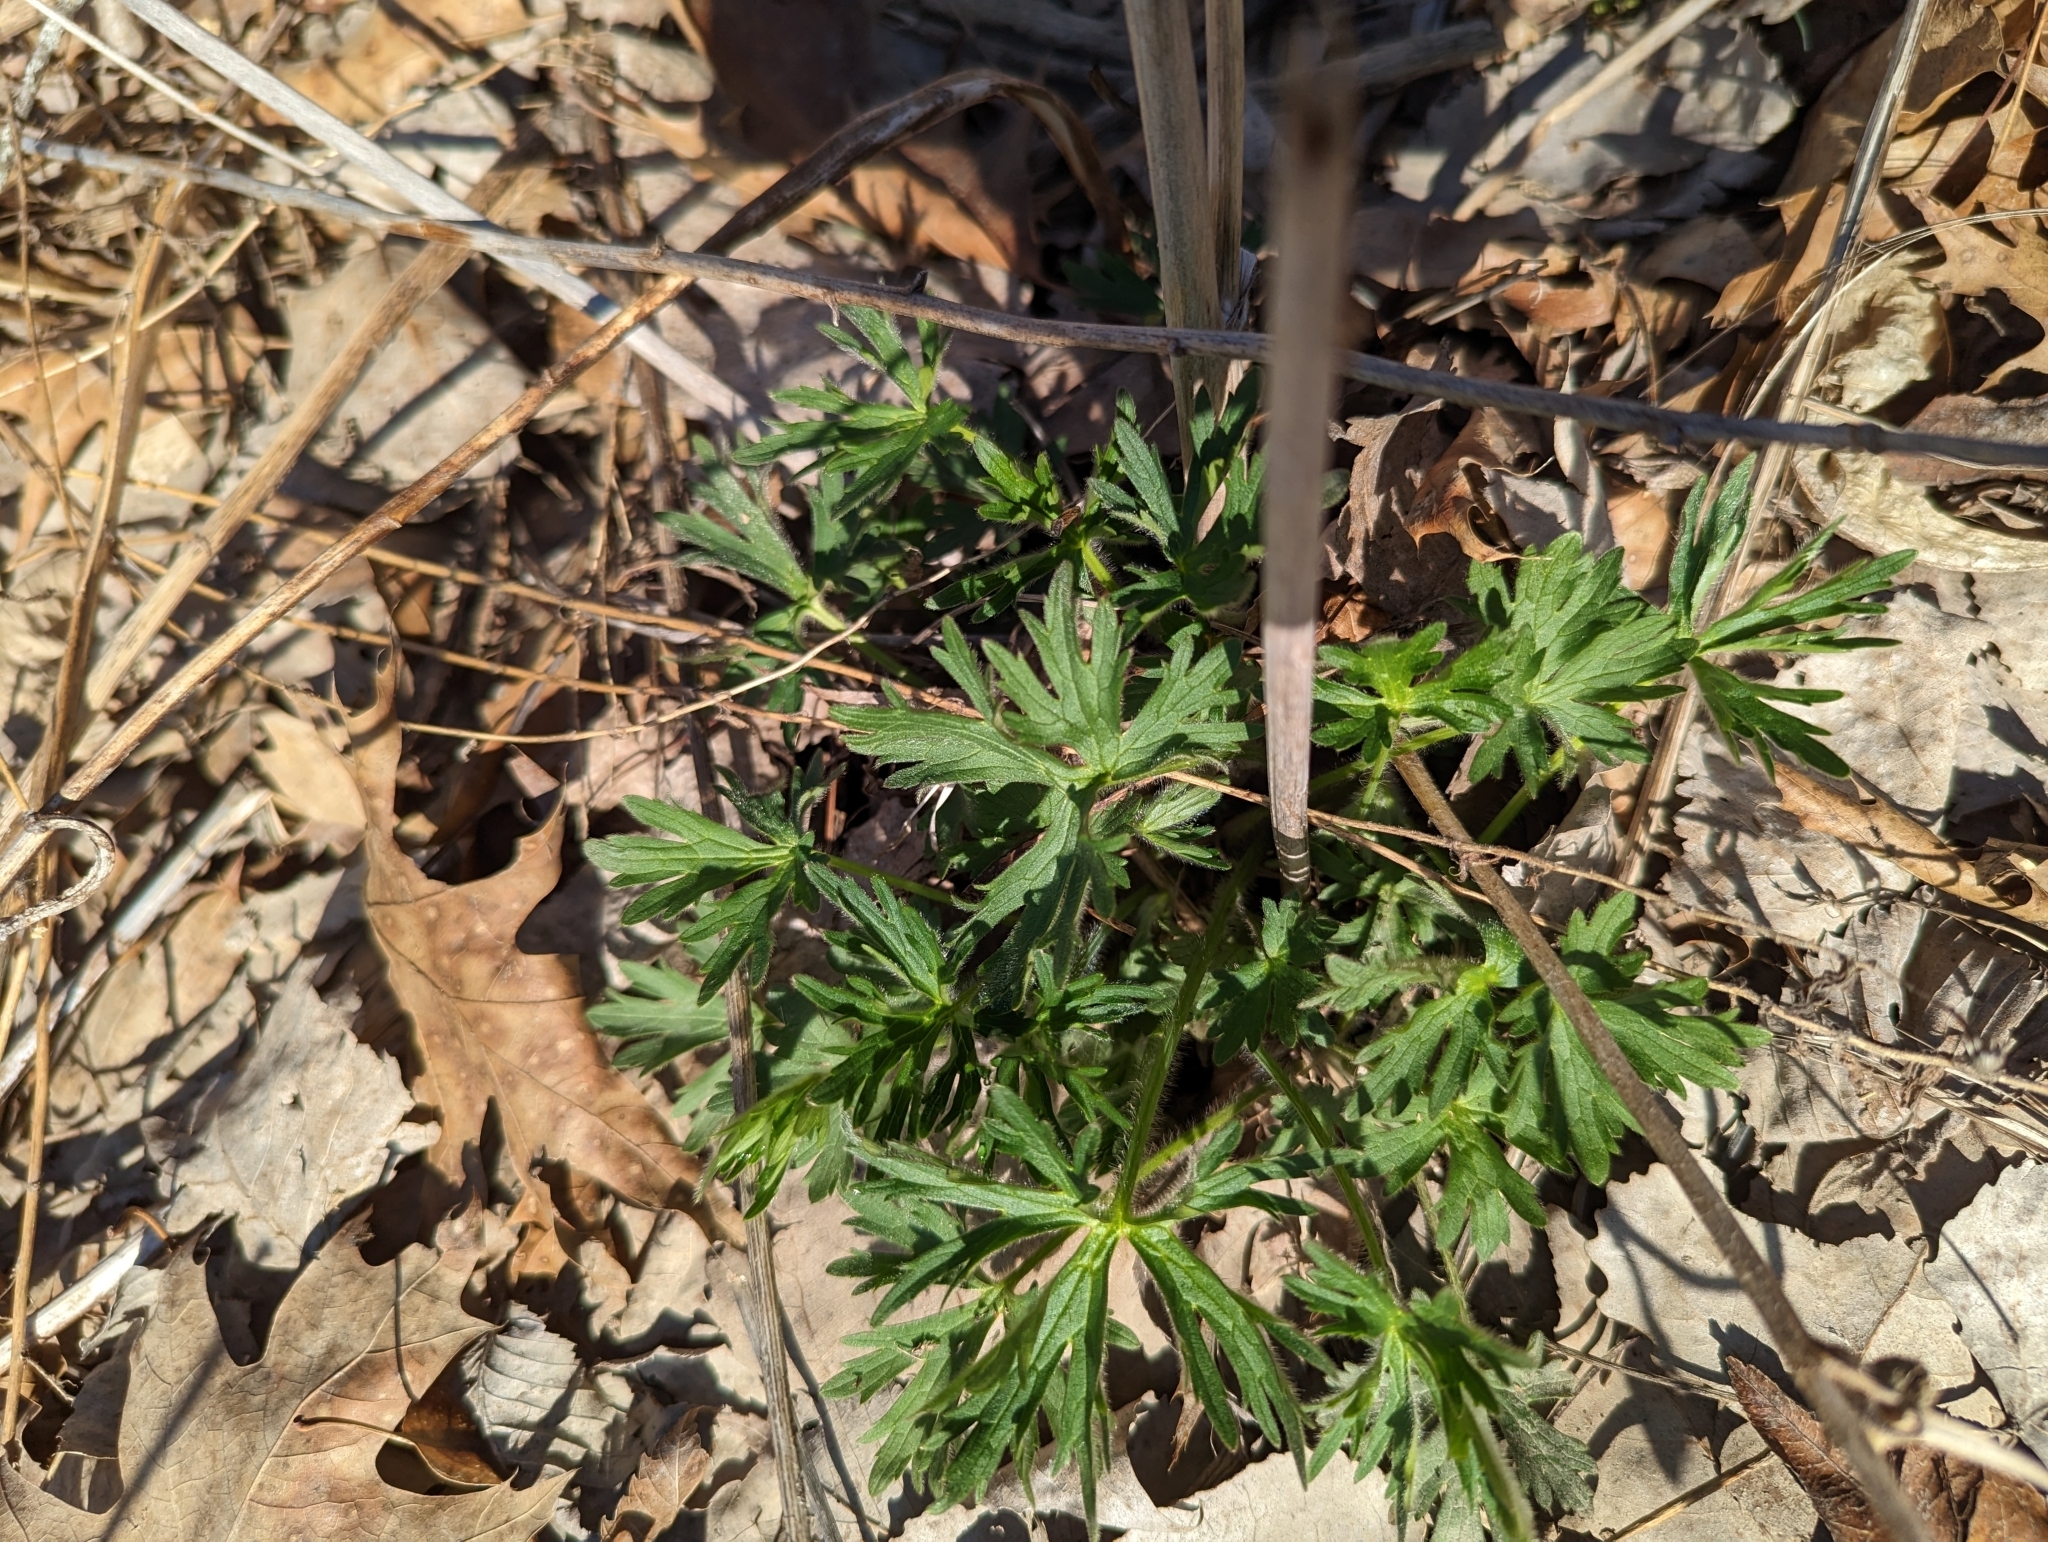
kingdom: Plantae
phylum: Tracheophyta
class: Magnoliopsida
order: Geraniales
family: Geraniaceae
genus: Geranium
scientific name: Geranium maculatum
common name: Spotted geranium
